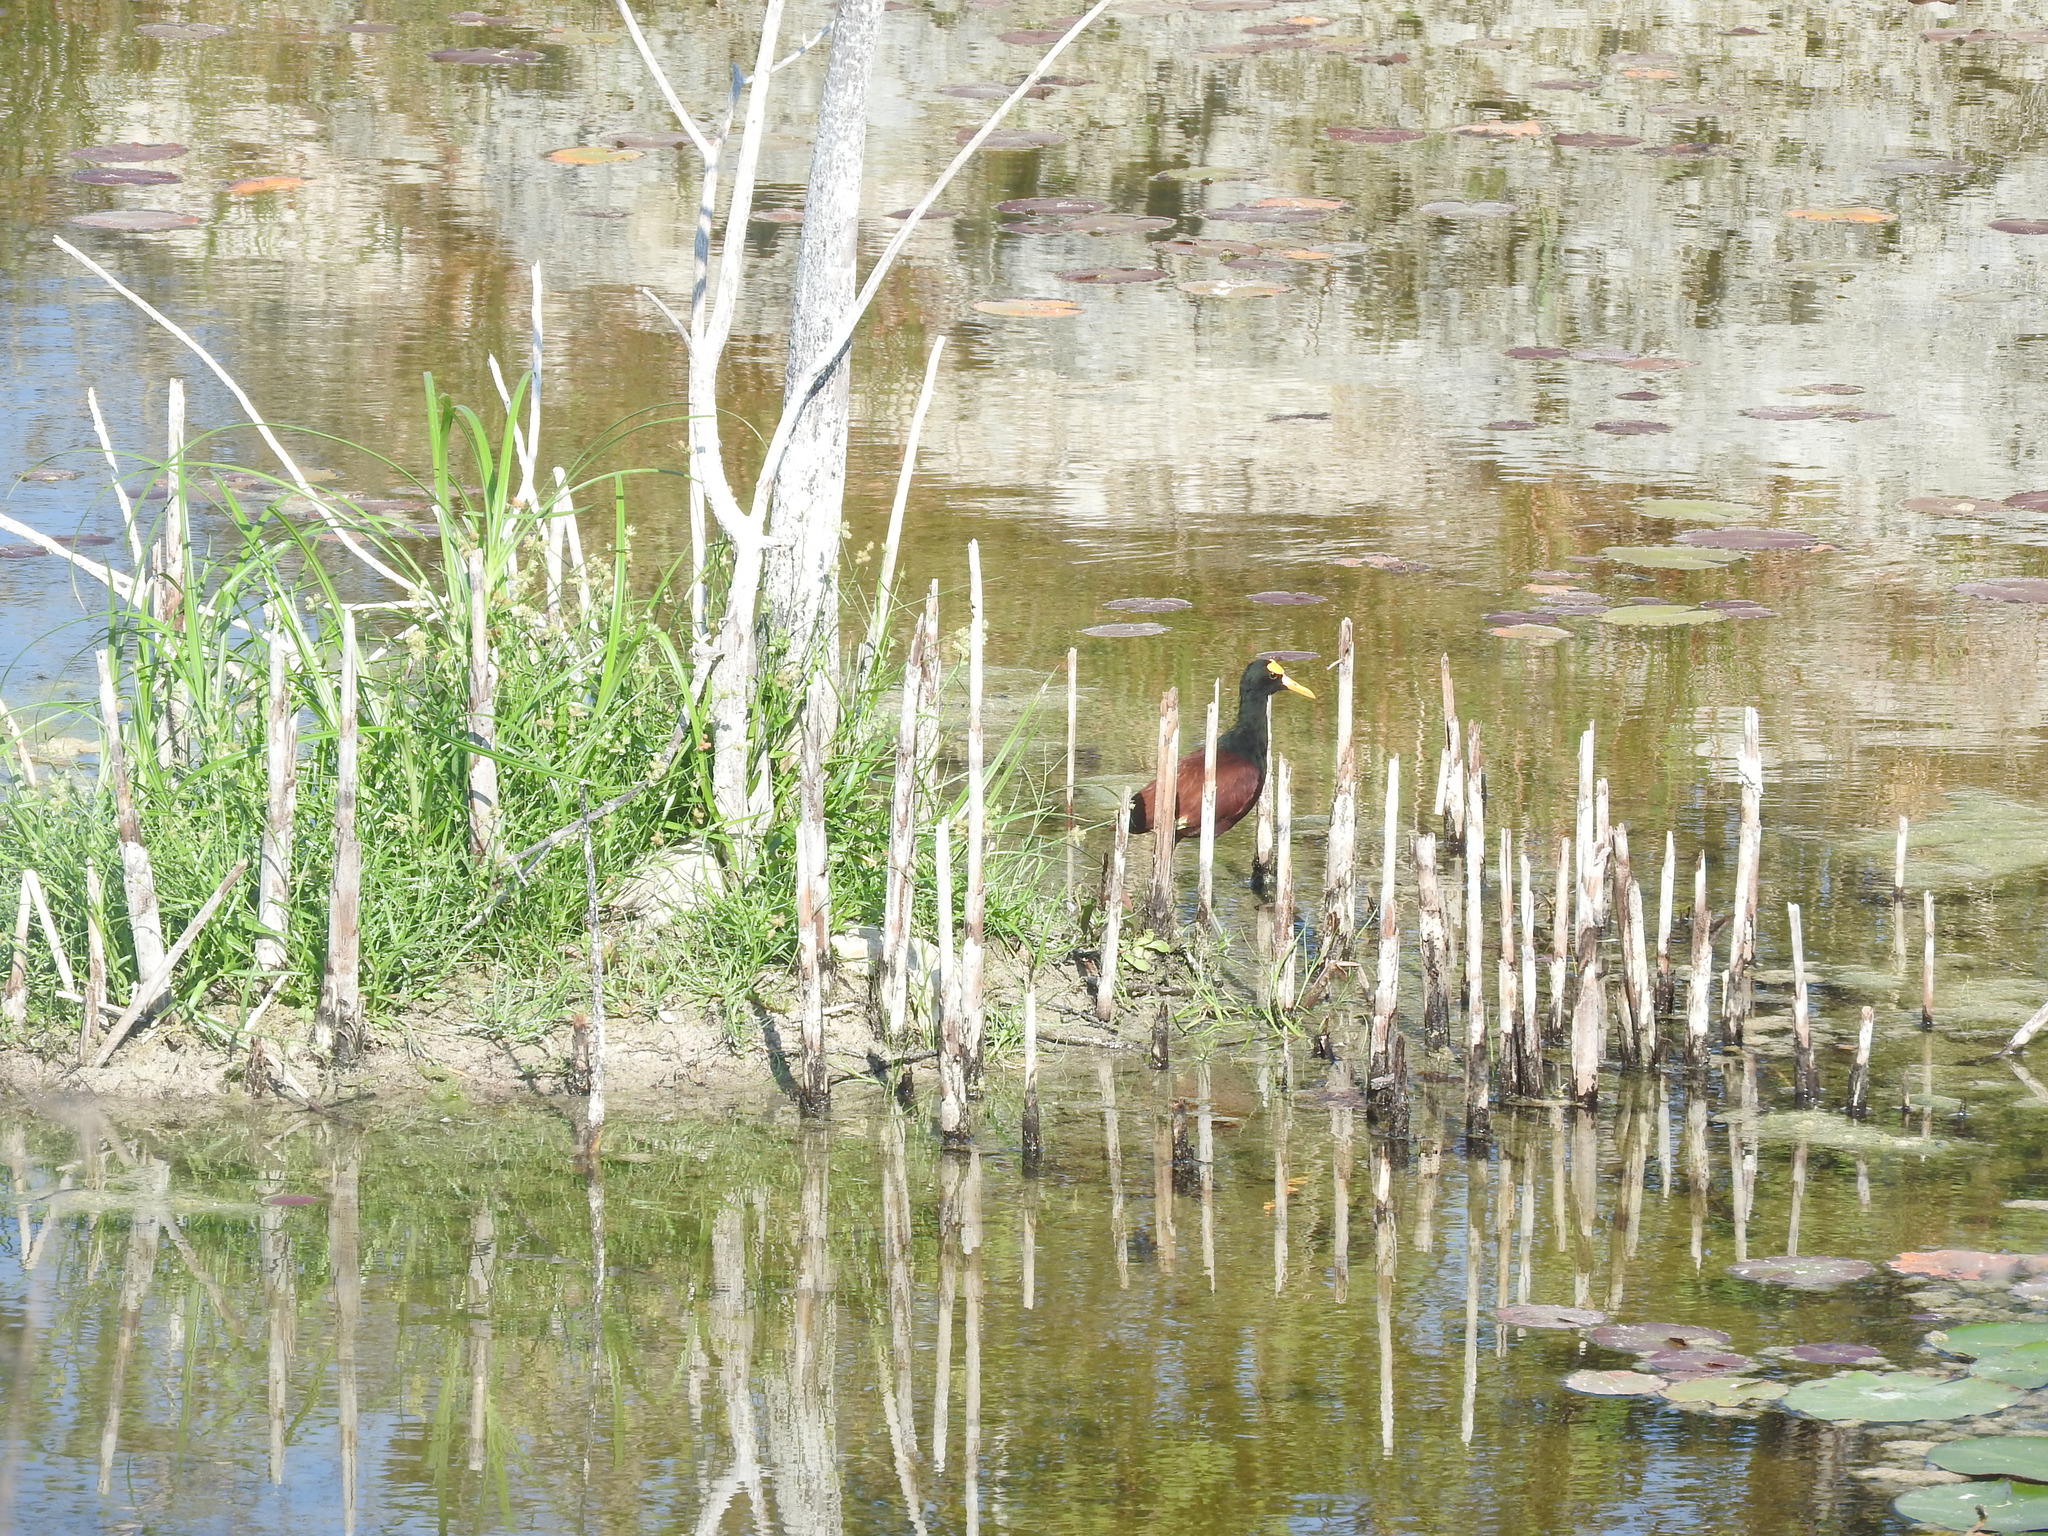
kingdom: Animalia
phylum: Chordata
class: Aves
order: Charadriiformes
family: Jacanidae
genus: Jacana
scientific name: Jacana spinosa
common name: Northern jacana
